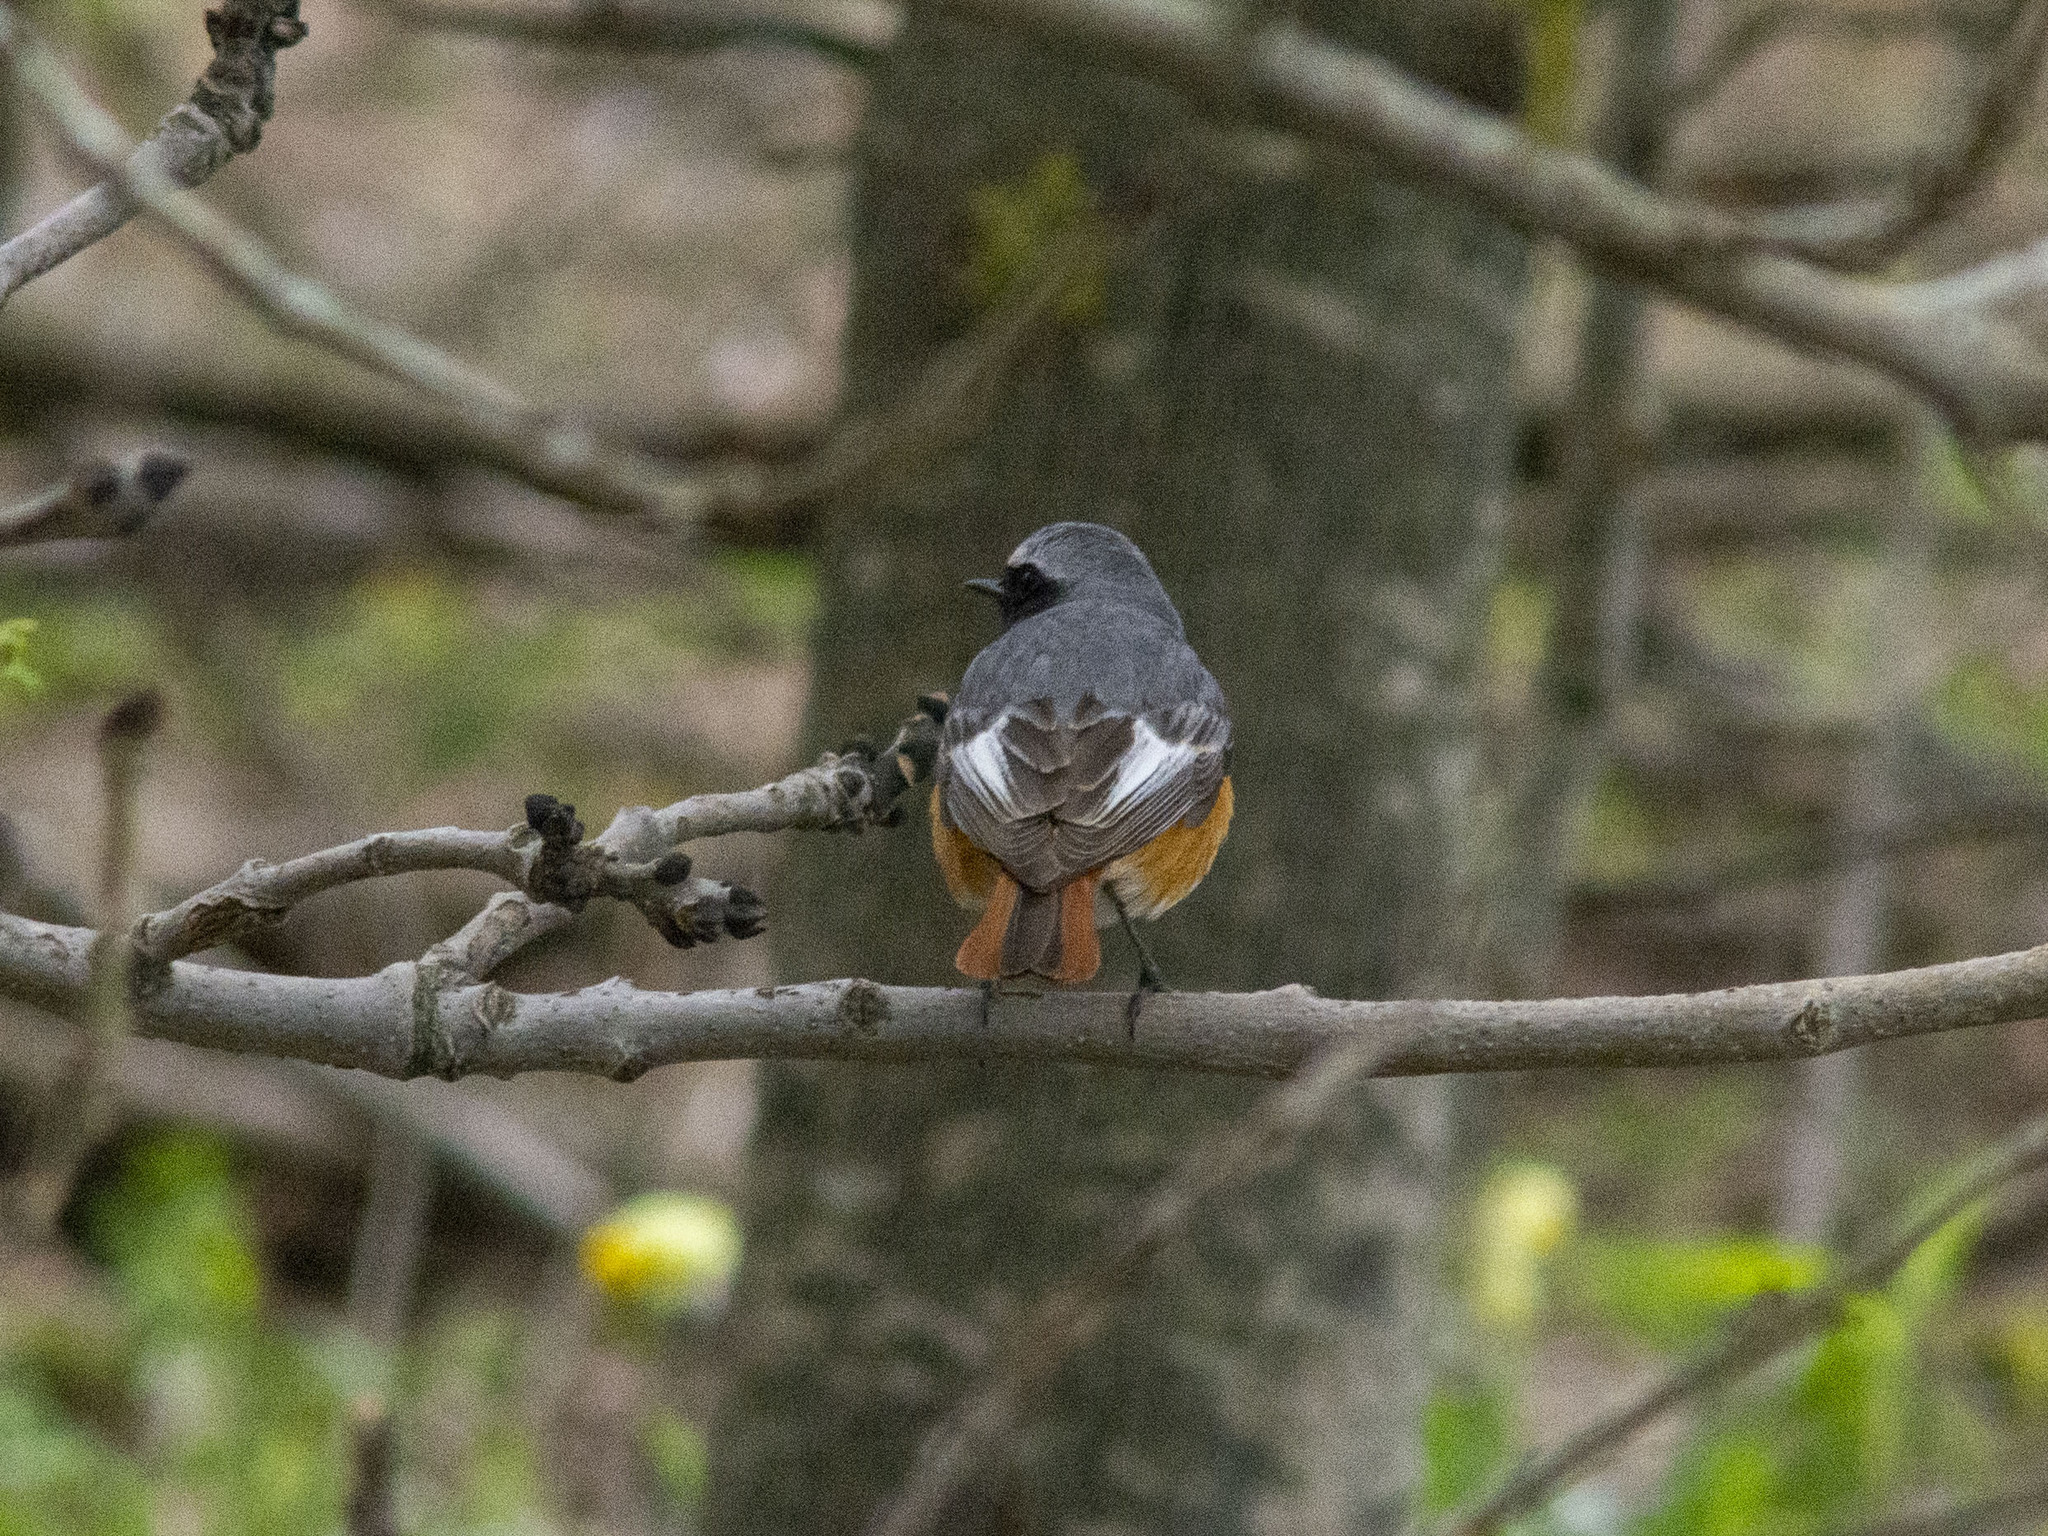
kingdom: Animalia
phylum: Chordata
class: Aves
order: Passeriformes
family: Muscicapidae
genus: Phoenicurus
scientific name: Phoenicurus phoenicurus
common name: Common redstart
